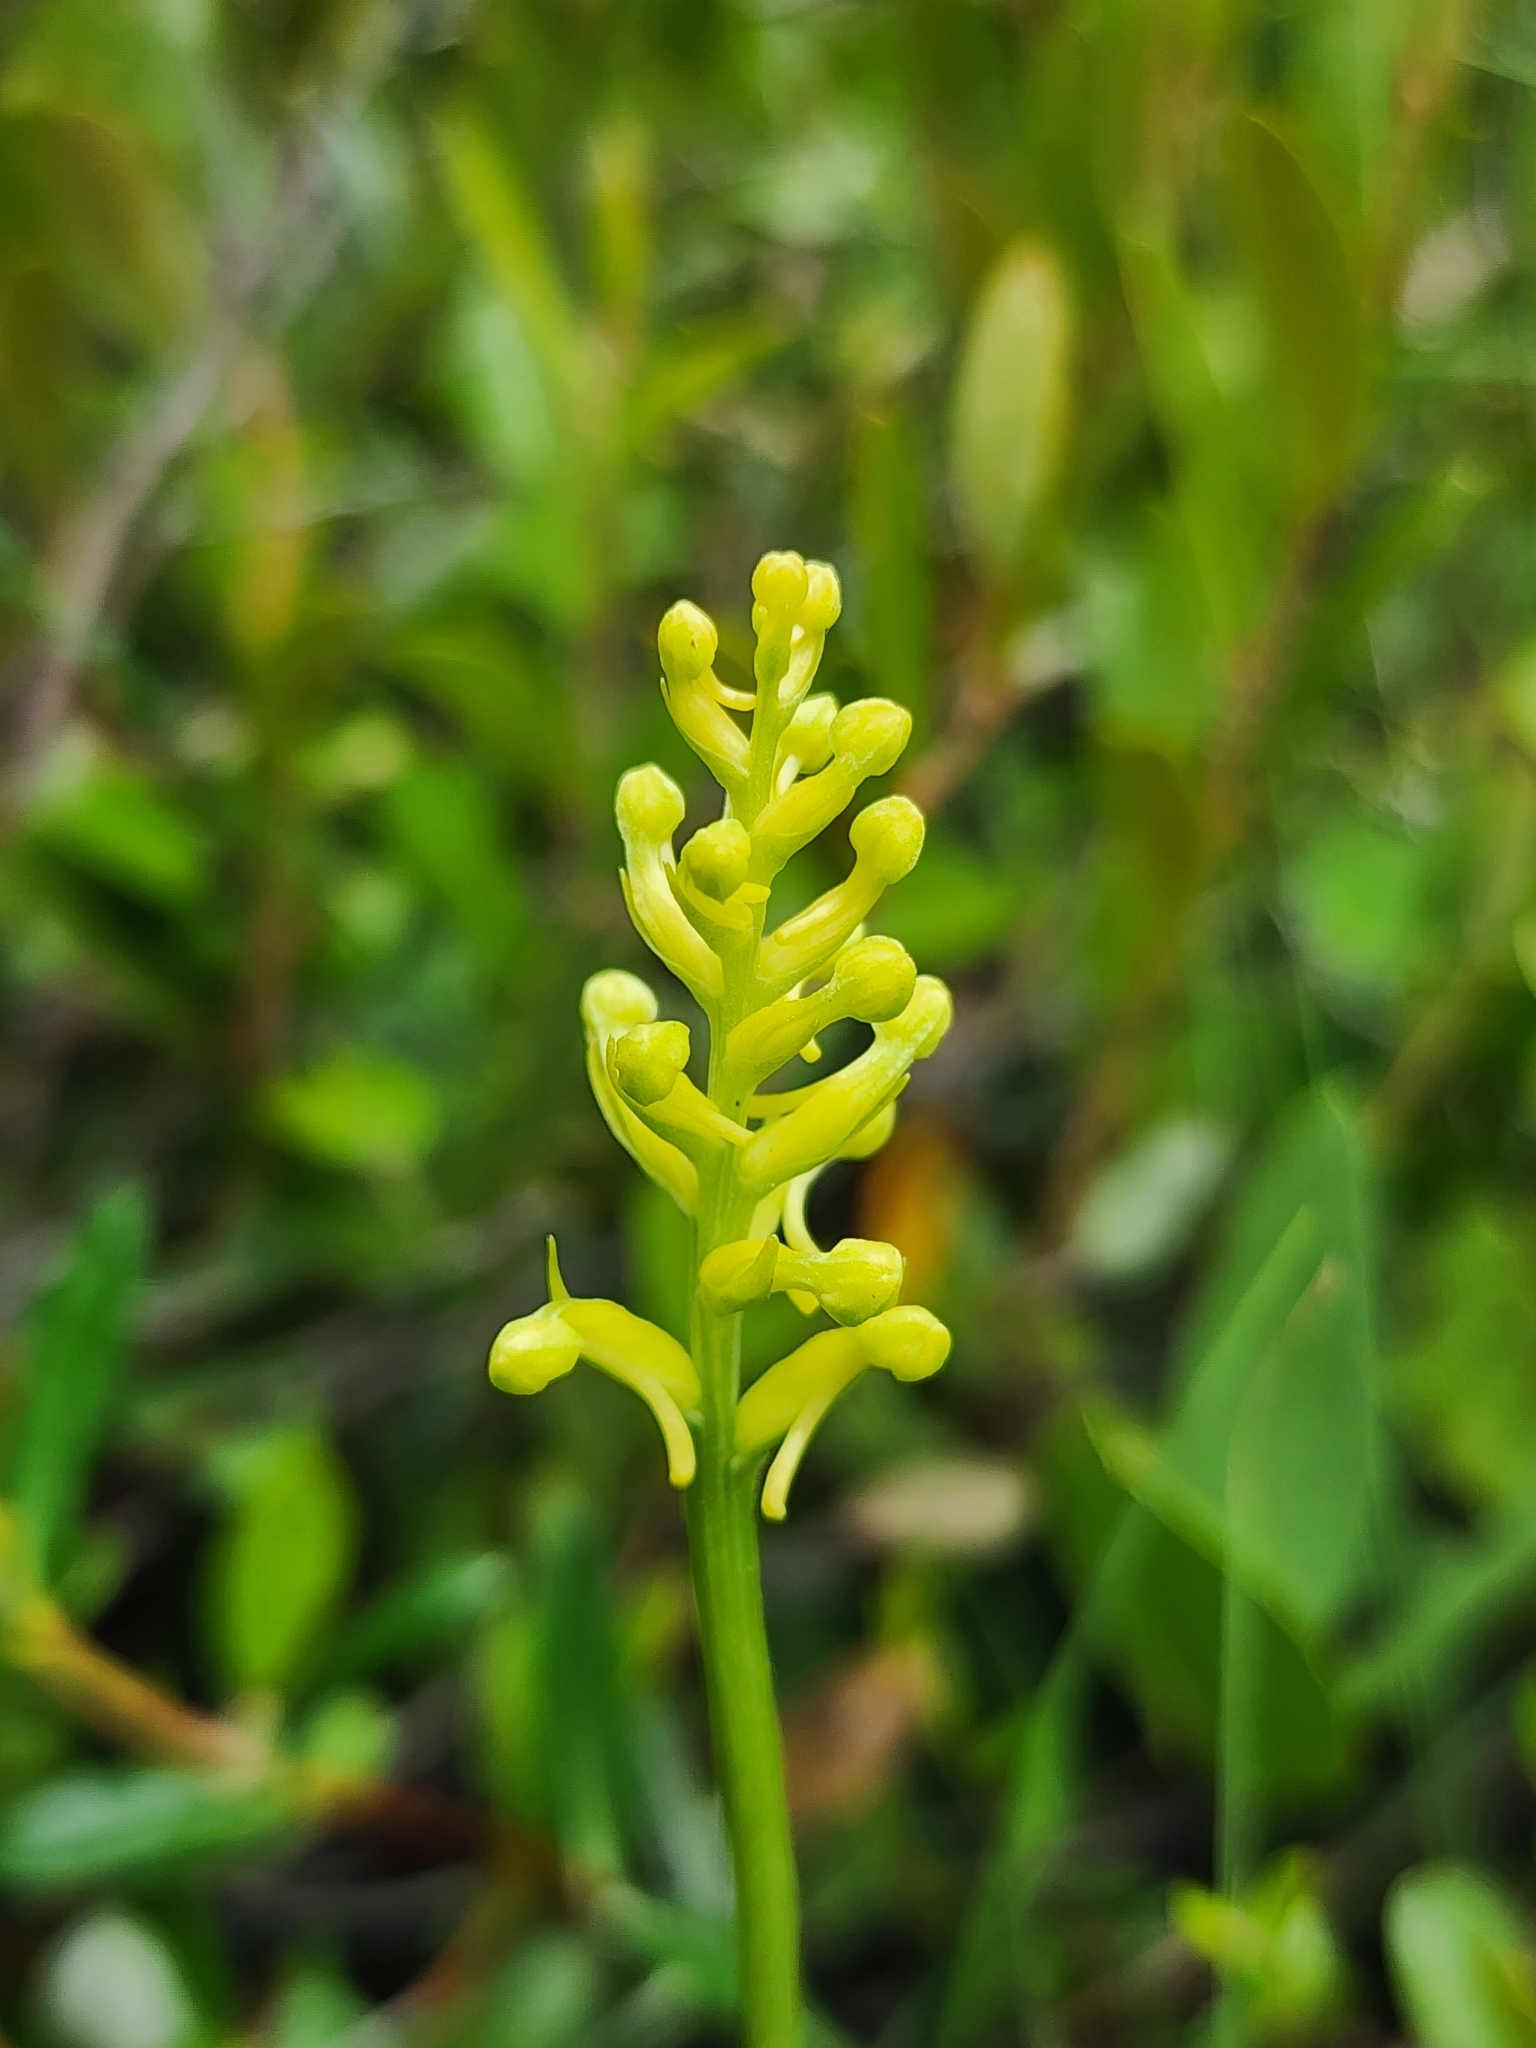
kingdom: Plantae
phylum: Tracheophyta
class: Liliopsida
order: Asparagales
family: Orchidaceae
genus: Platanthera
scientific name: Platanthera clavellata
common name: Club-spur orchid
